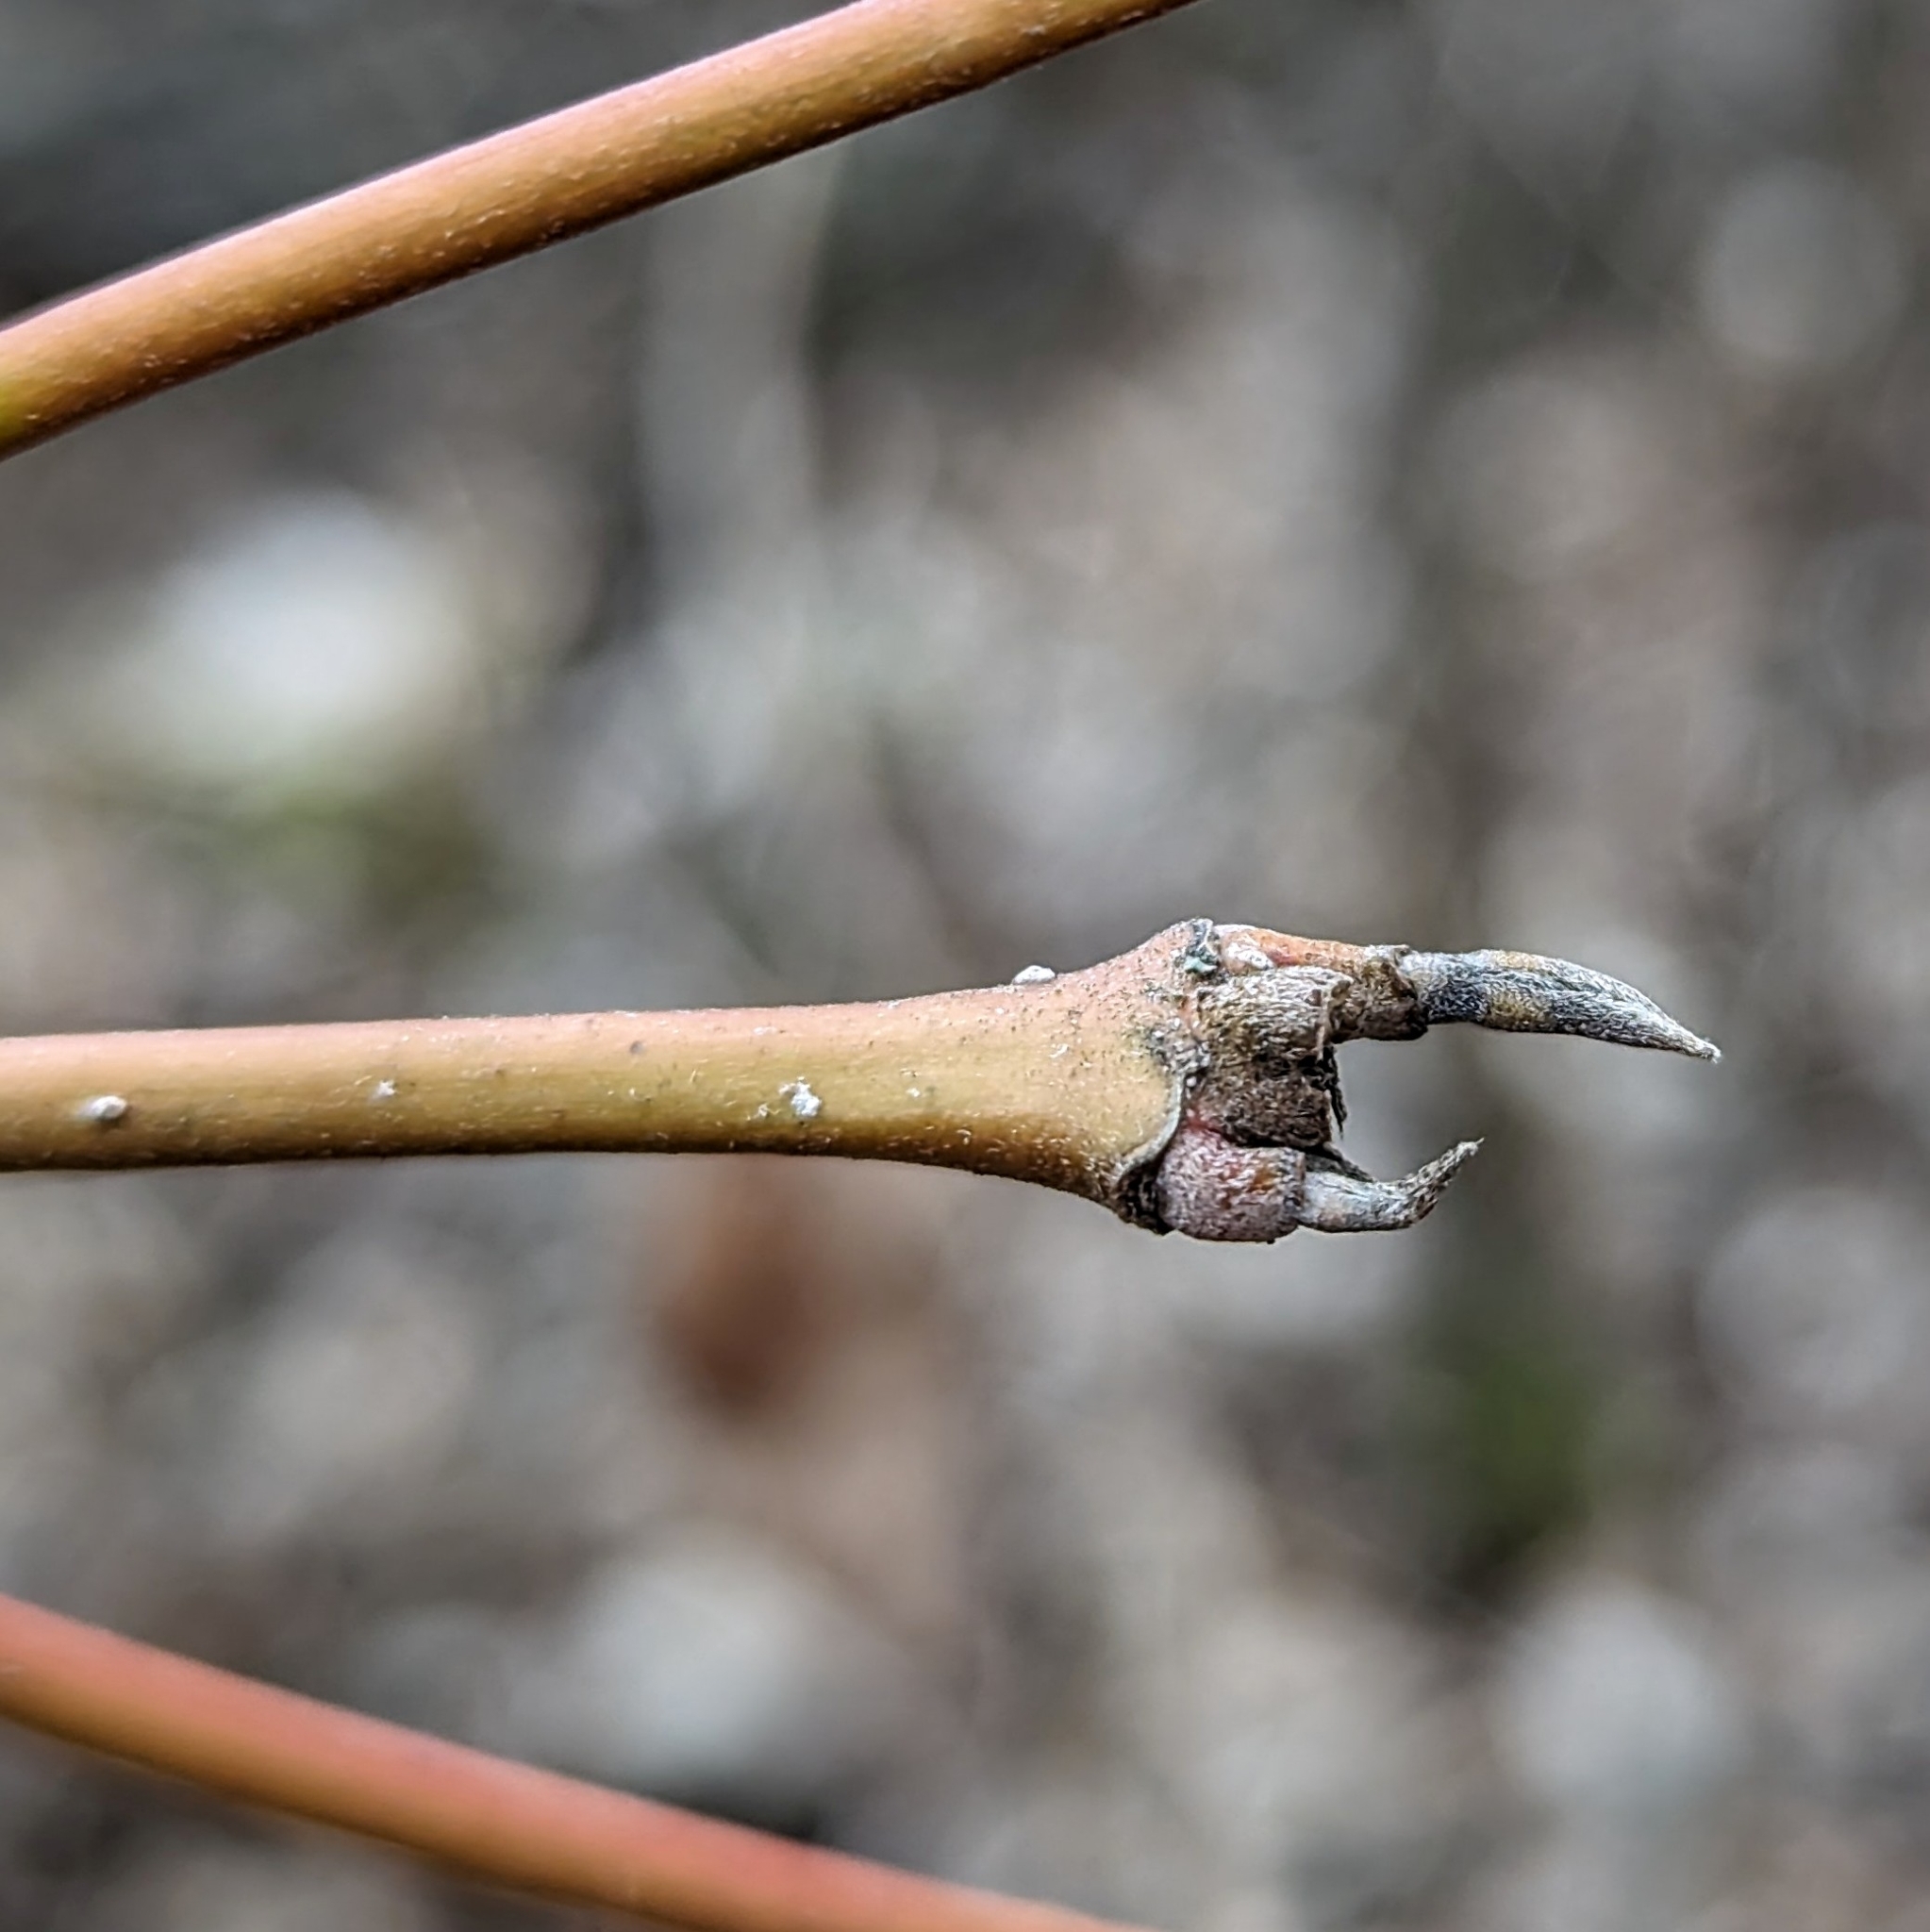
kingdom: Plantae
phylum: Tracheophyta
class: Magnoliopsida
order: Cornales
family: Cornaceae
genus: Cornus
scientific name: Cornus
